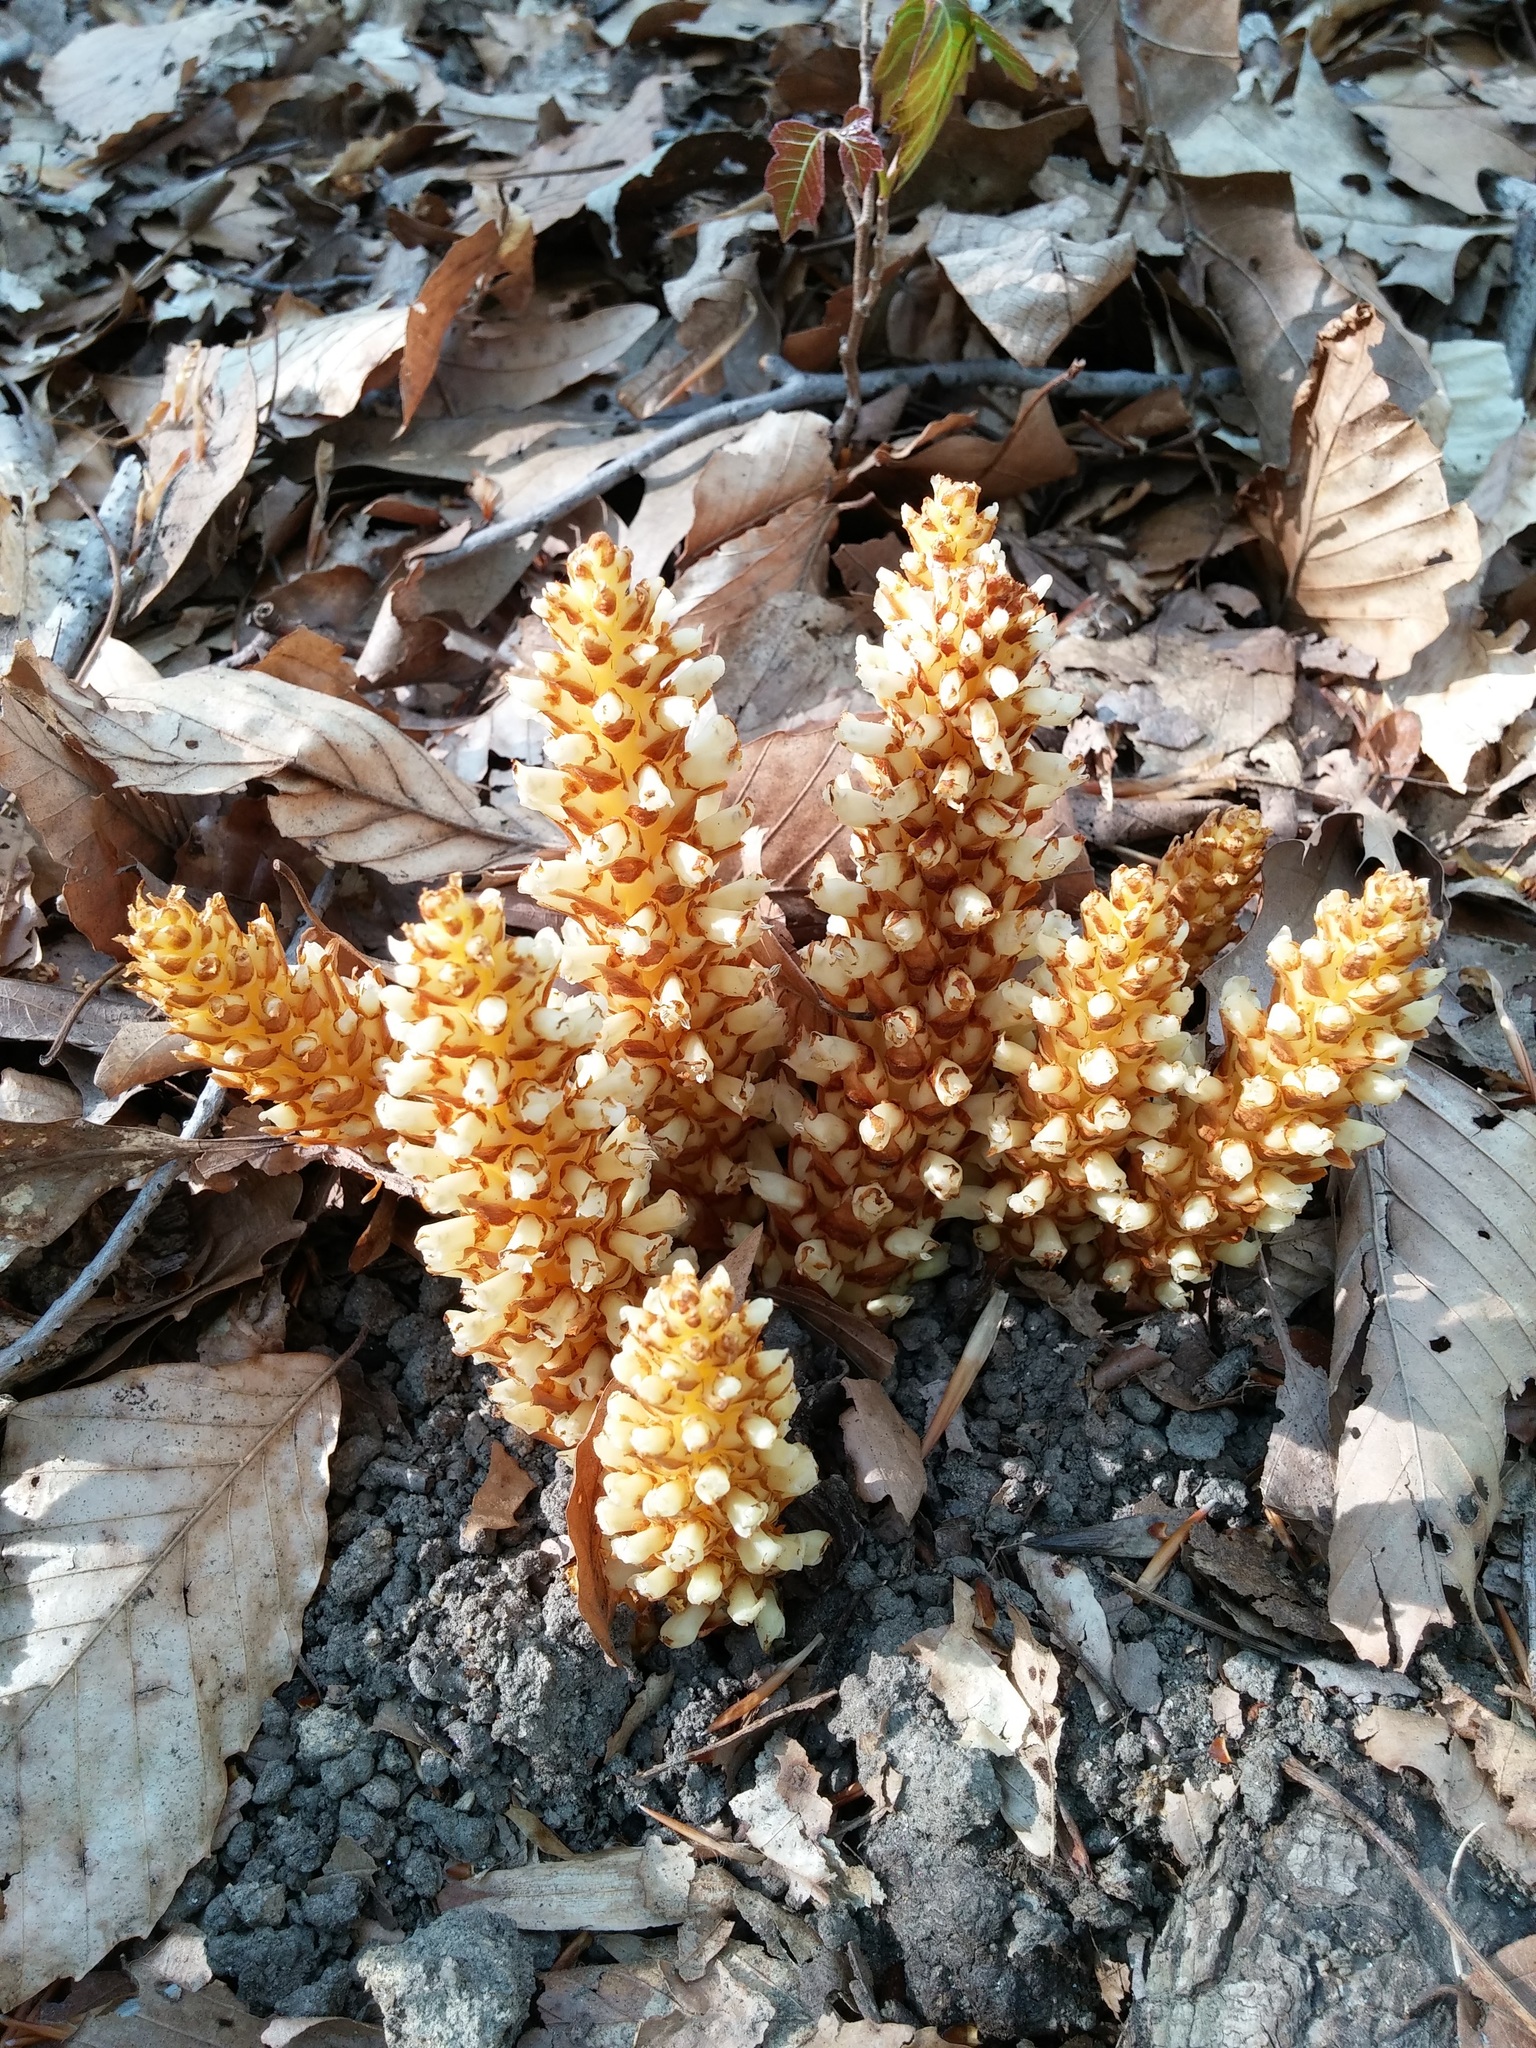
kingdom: Plantae
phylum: Tracheophyta
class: Magnoliopsida
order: Lamiales
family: Orobanchaceae
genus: Conopholis
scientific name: Conopholis americana
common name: American cancer-root
